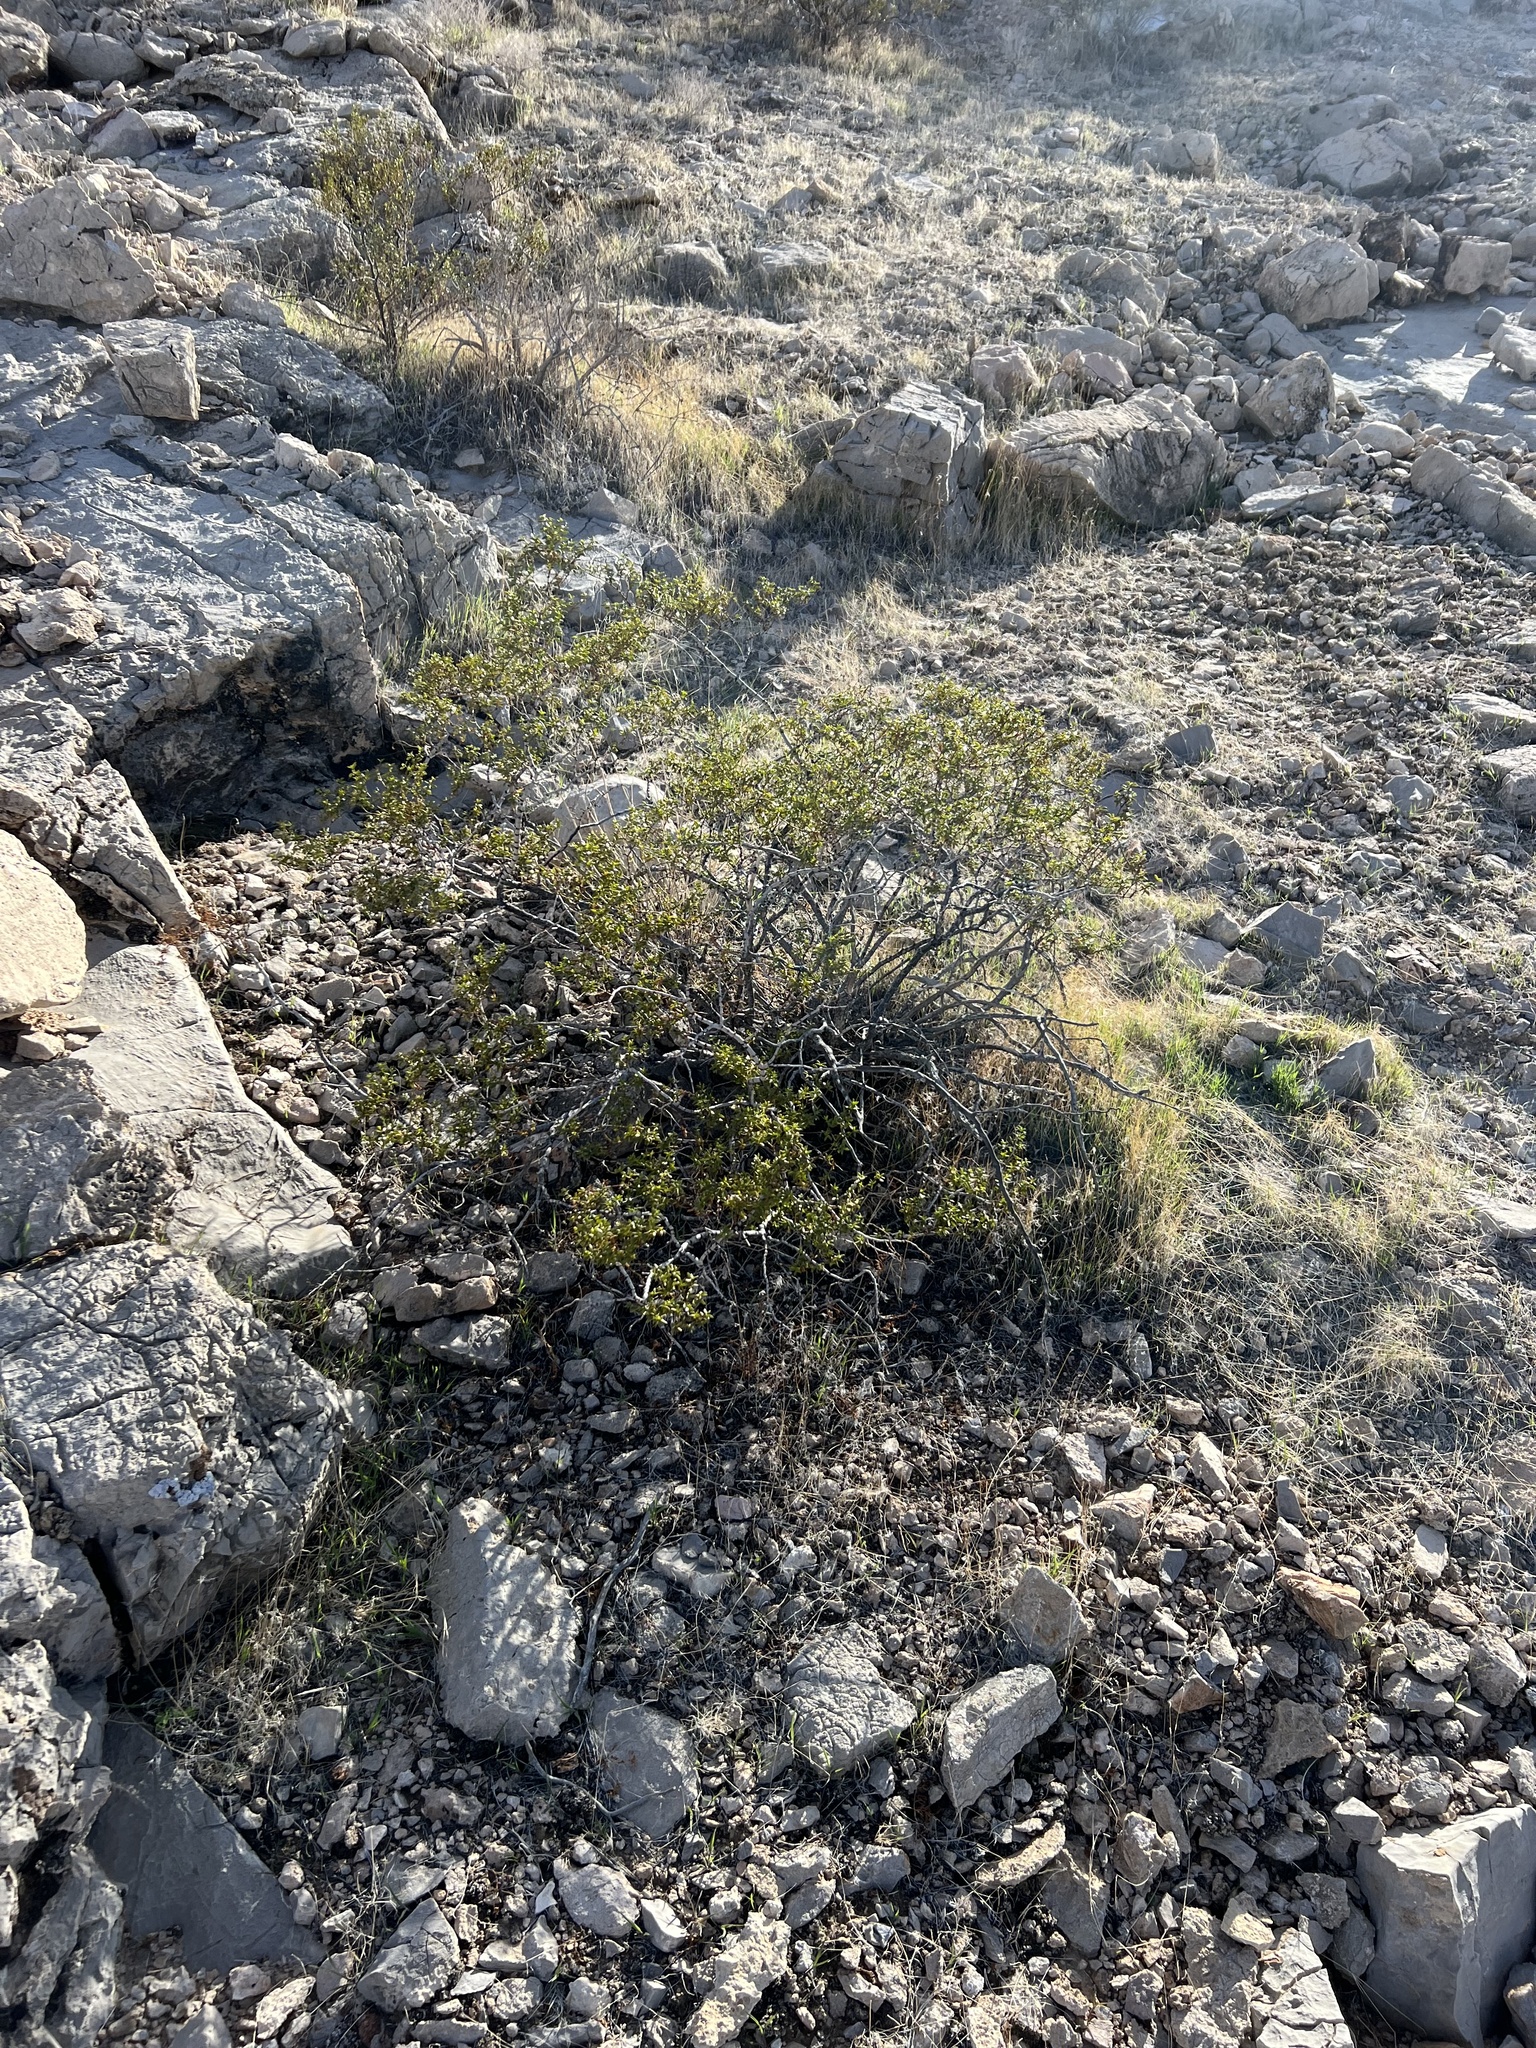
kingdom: Plantae
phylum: Tracheophyta
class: Magnoliopsida
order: Zygophyllales
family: Zygophyllaceae
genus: Larrea
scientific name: Larrea tridentata
